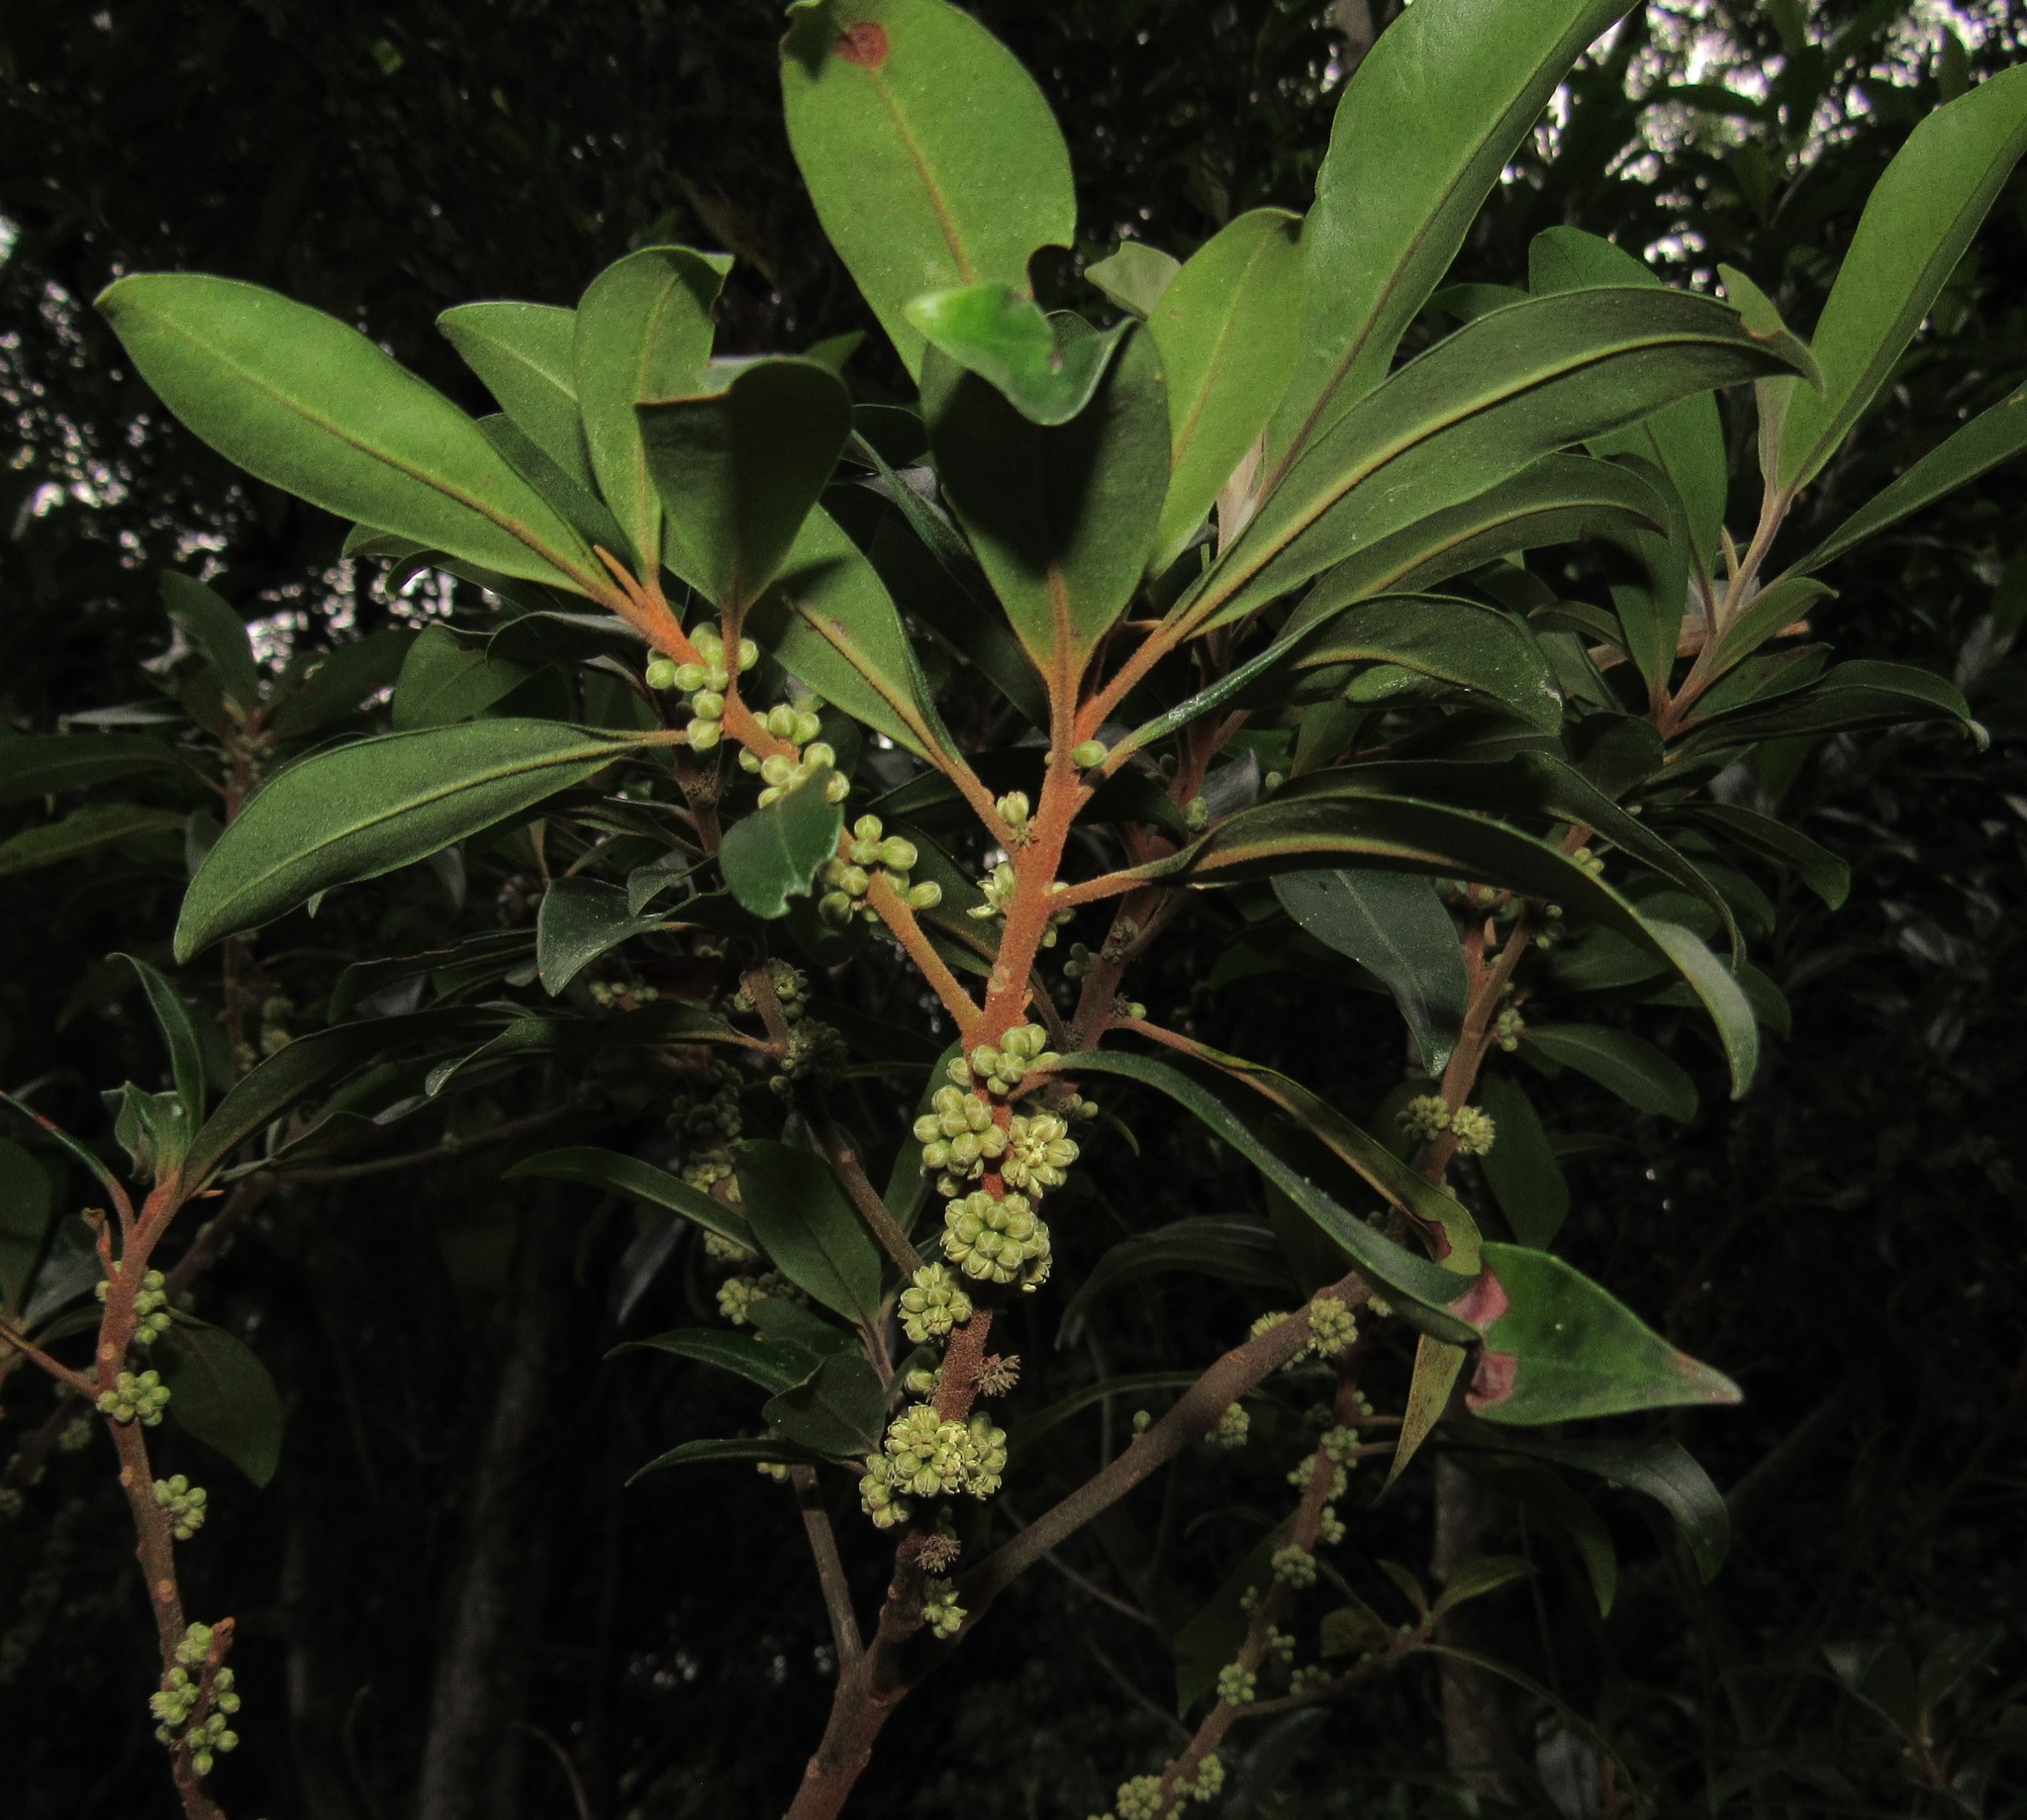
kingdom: Plantae
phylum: Tracheophyta
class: Magnoliopsida
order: Ericales
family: Primulaceae
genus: Myrsine
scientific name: Myrsine coriacea
